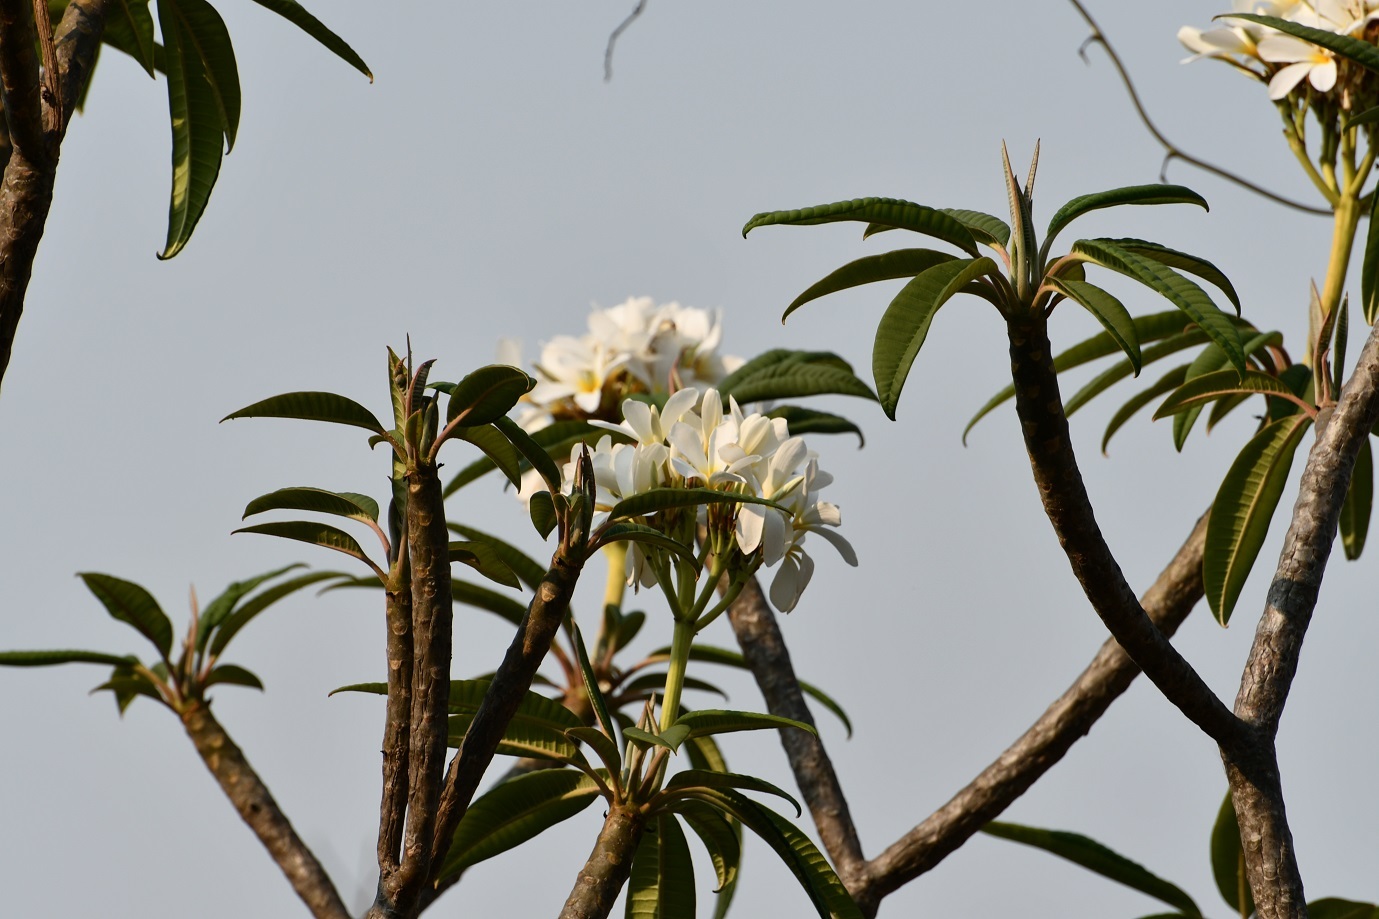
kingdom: Plantae
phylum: Tracheophyta
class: Magnoliopsida
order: Gentianales
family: Apocynaceae
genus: Plumeria
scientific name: Plumeria rubra
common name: Pagoda-tree
